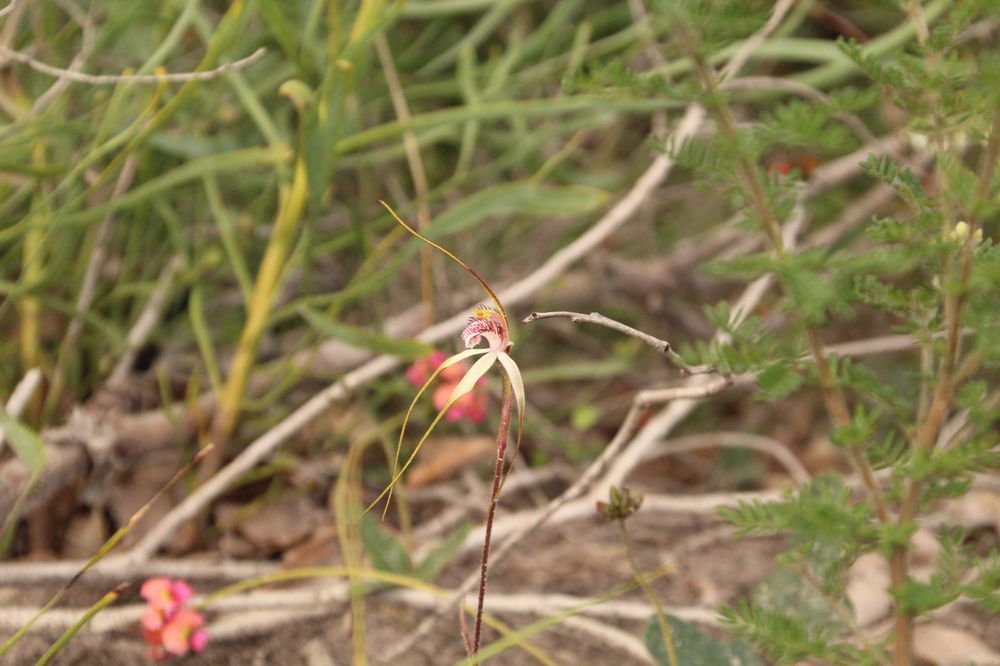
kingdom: Plantae
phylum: Tracheophyta
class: Liliopsida
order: Asparagales
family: Orchidaceae
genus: Caladenia
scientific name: Caladenia longicauda
